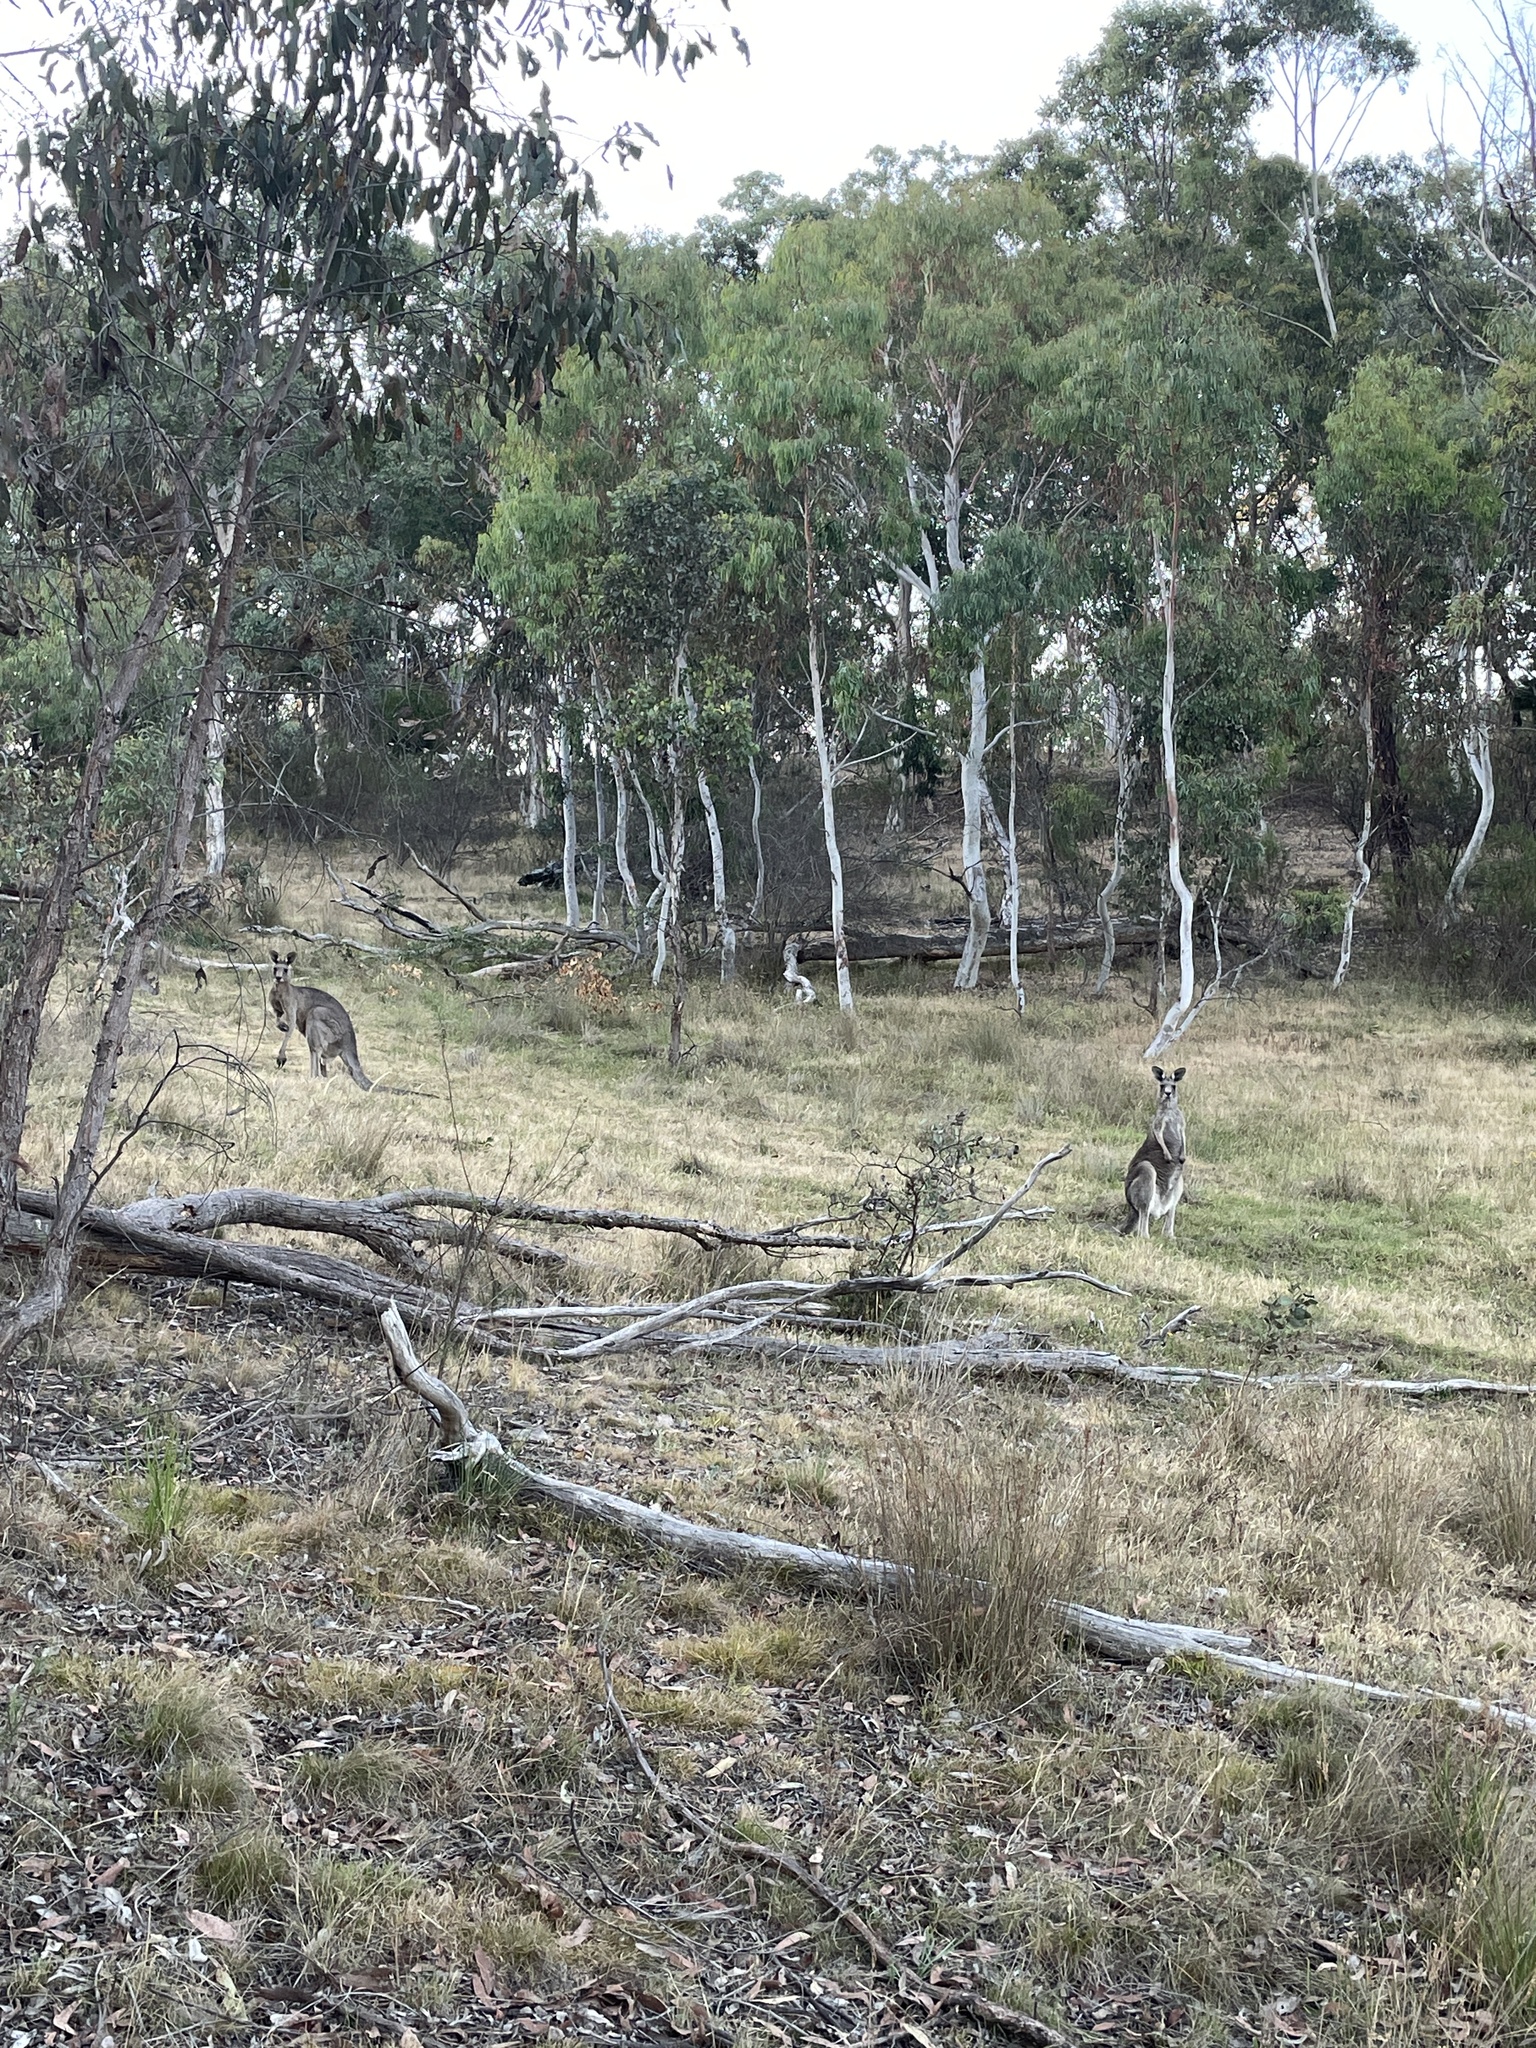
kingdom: Animalia
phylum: Chordata
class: Mammalia
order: Diprotodontia
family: Macropodidae
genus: Macropus
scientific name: Macropus giganteus
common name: Eastern grey kangaroo
